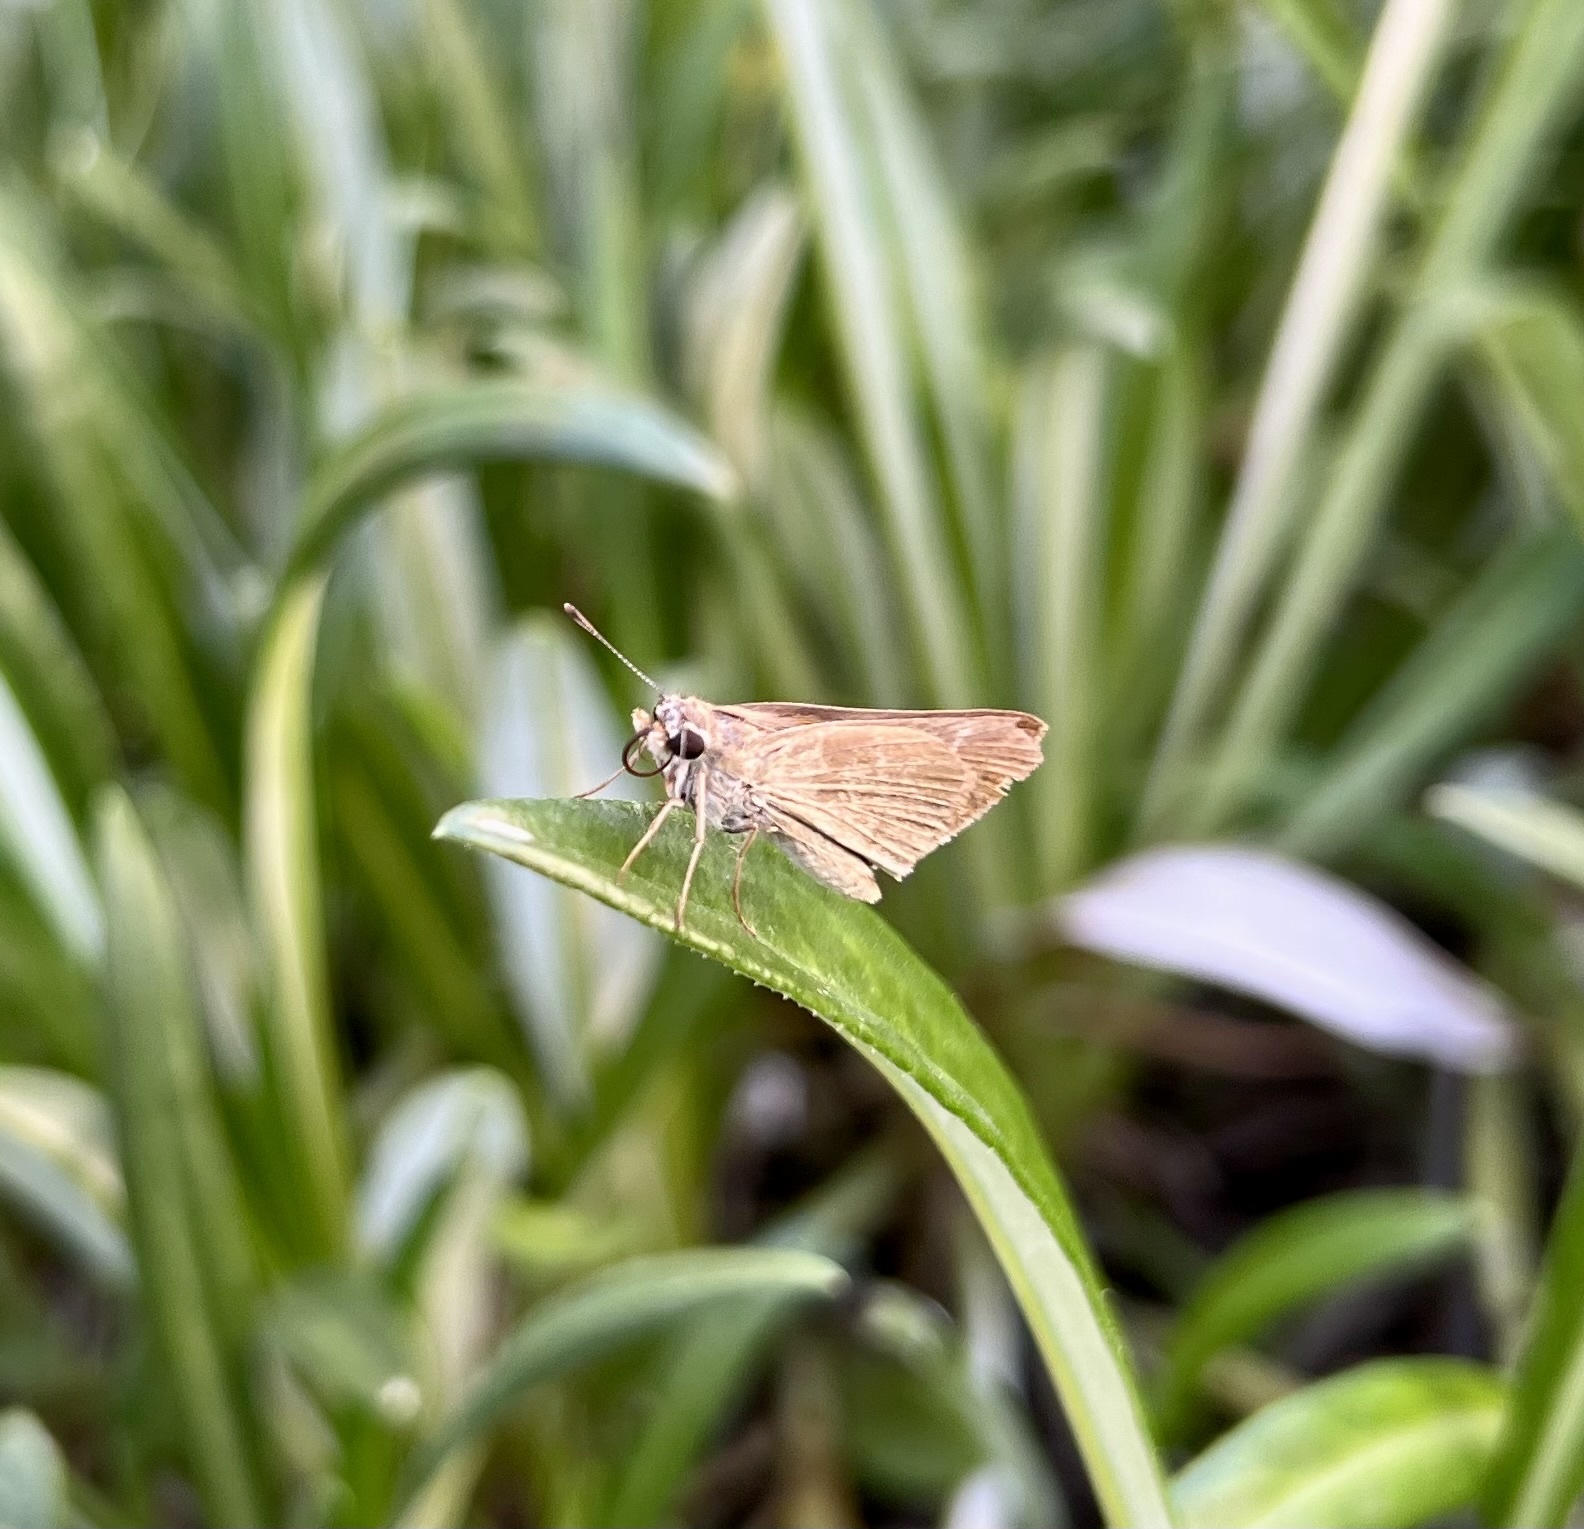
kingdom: Animalia
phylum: Arthropoda
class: Insecta
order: Lepidoptera
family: Hesperiidae
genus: Lerodea
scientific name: Lerodea eufala
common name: Eufala skipper
